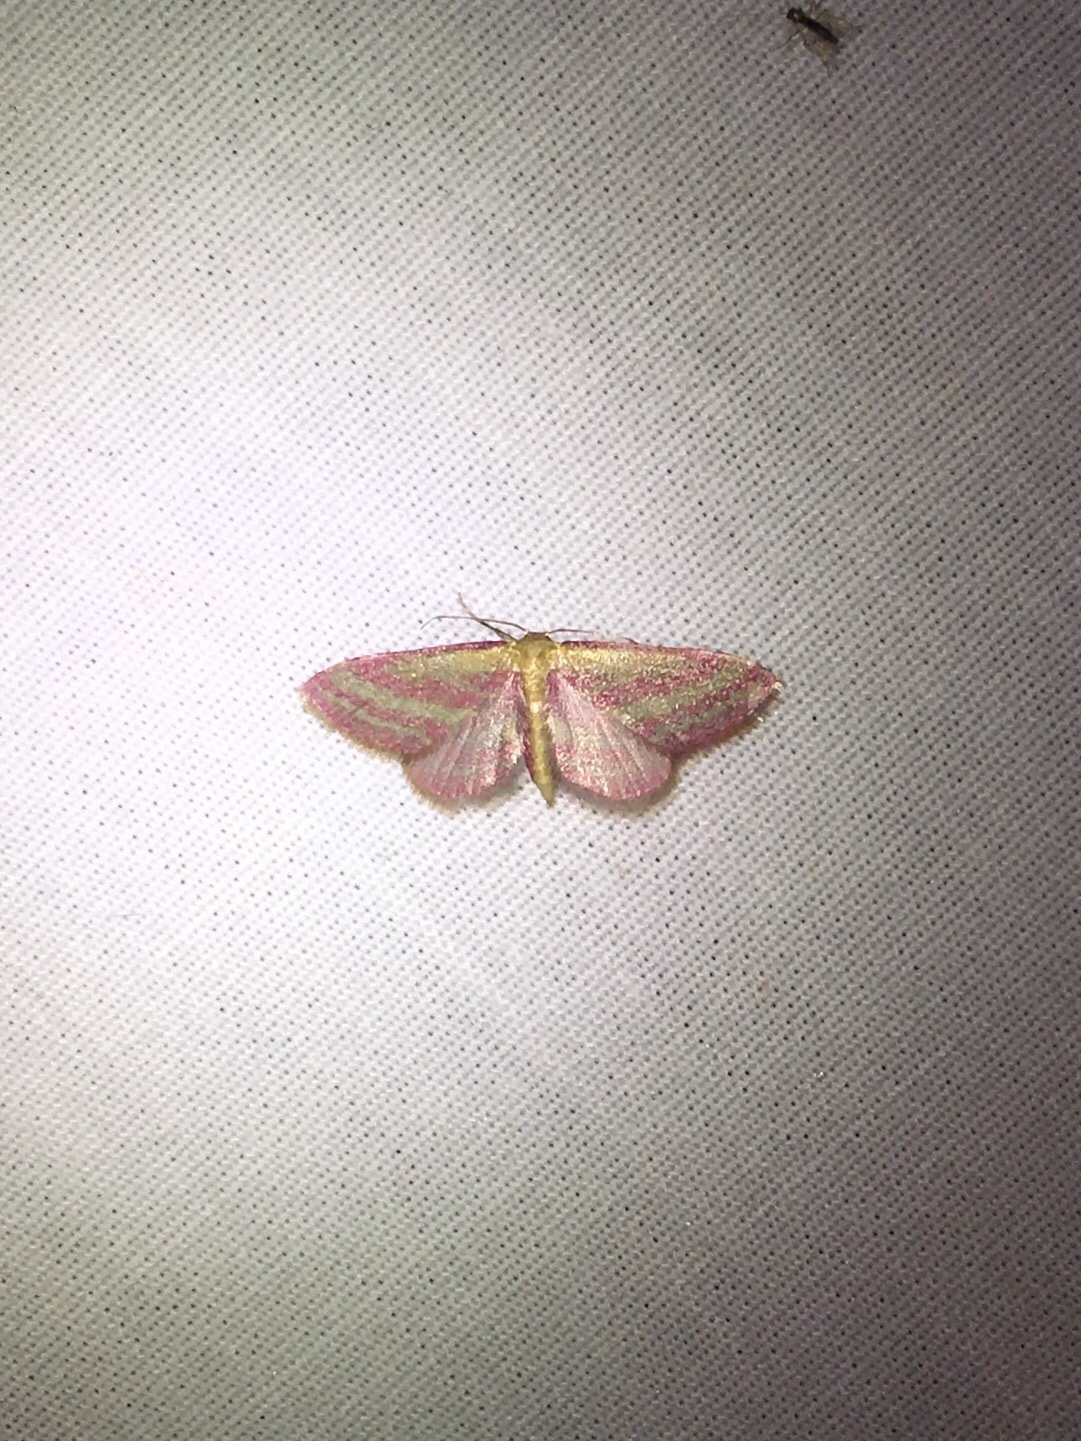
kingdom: Animalia
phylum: Arthropoda
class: Insecta
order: Lepidoptera
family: Geometridae
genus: Leptostales
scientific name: Leptostales laevitaria
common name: Raspberry wave moth
